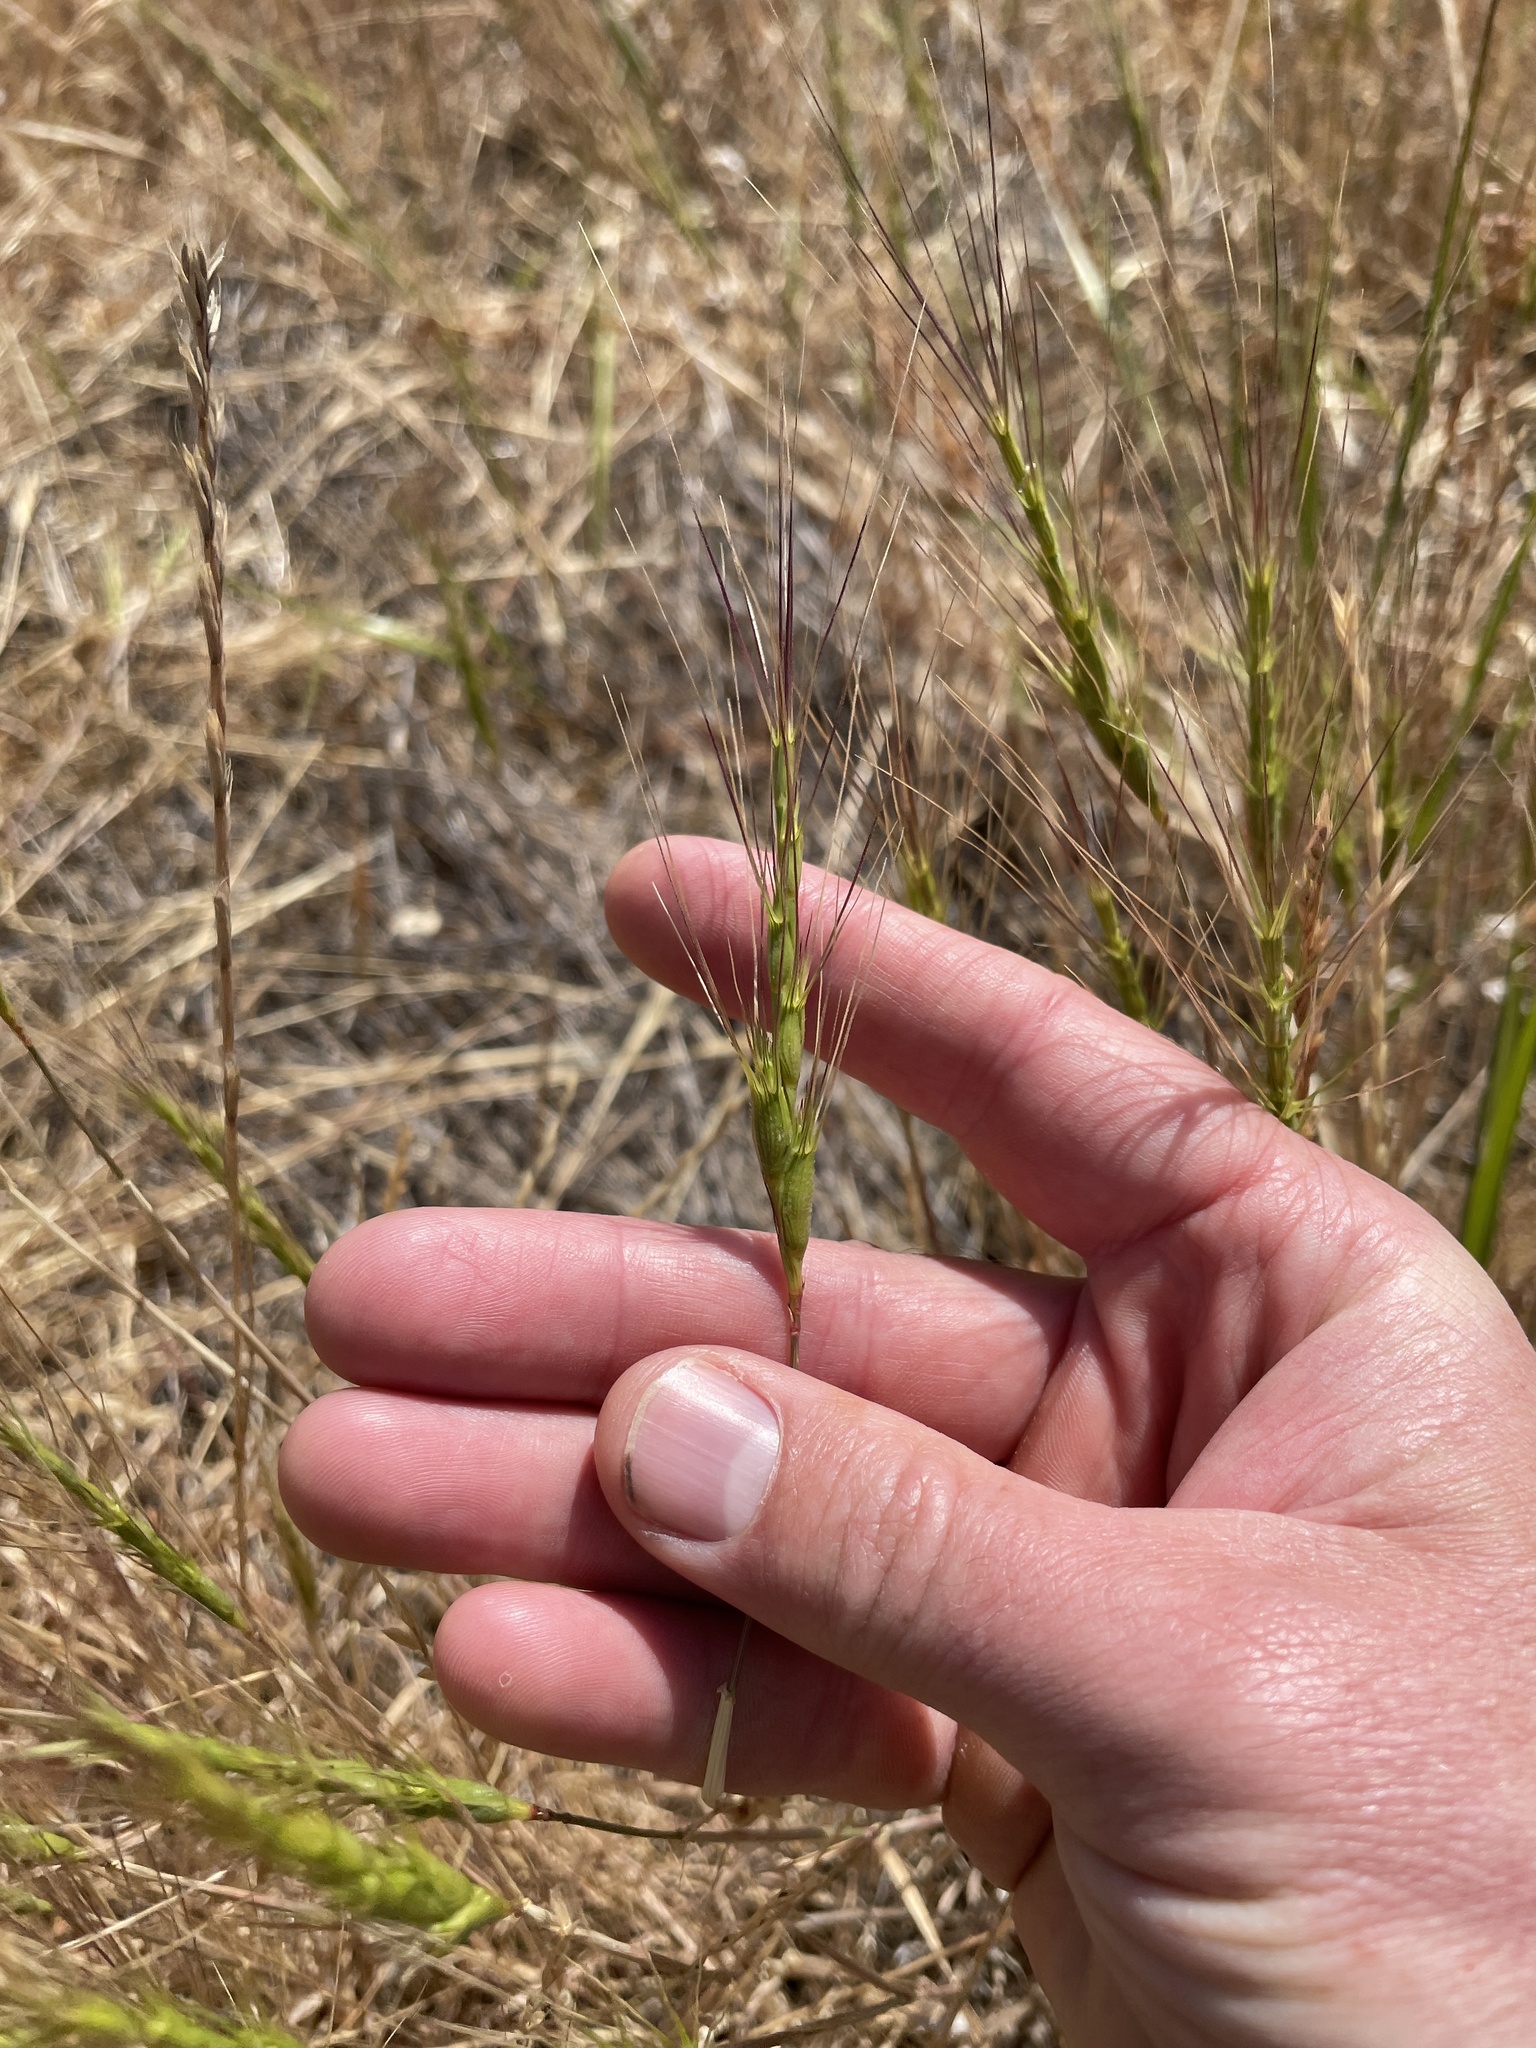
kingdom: Plantae
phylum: Tracheophyta
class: Liliopsida
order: Poales
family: Poaceae
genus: Aegilops
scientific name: Aegilops triuncialis
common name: Barb goat grass
